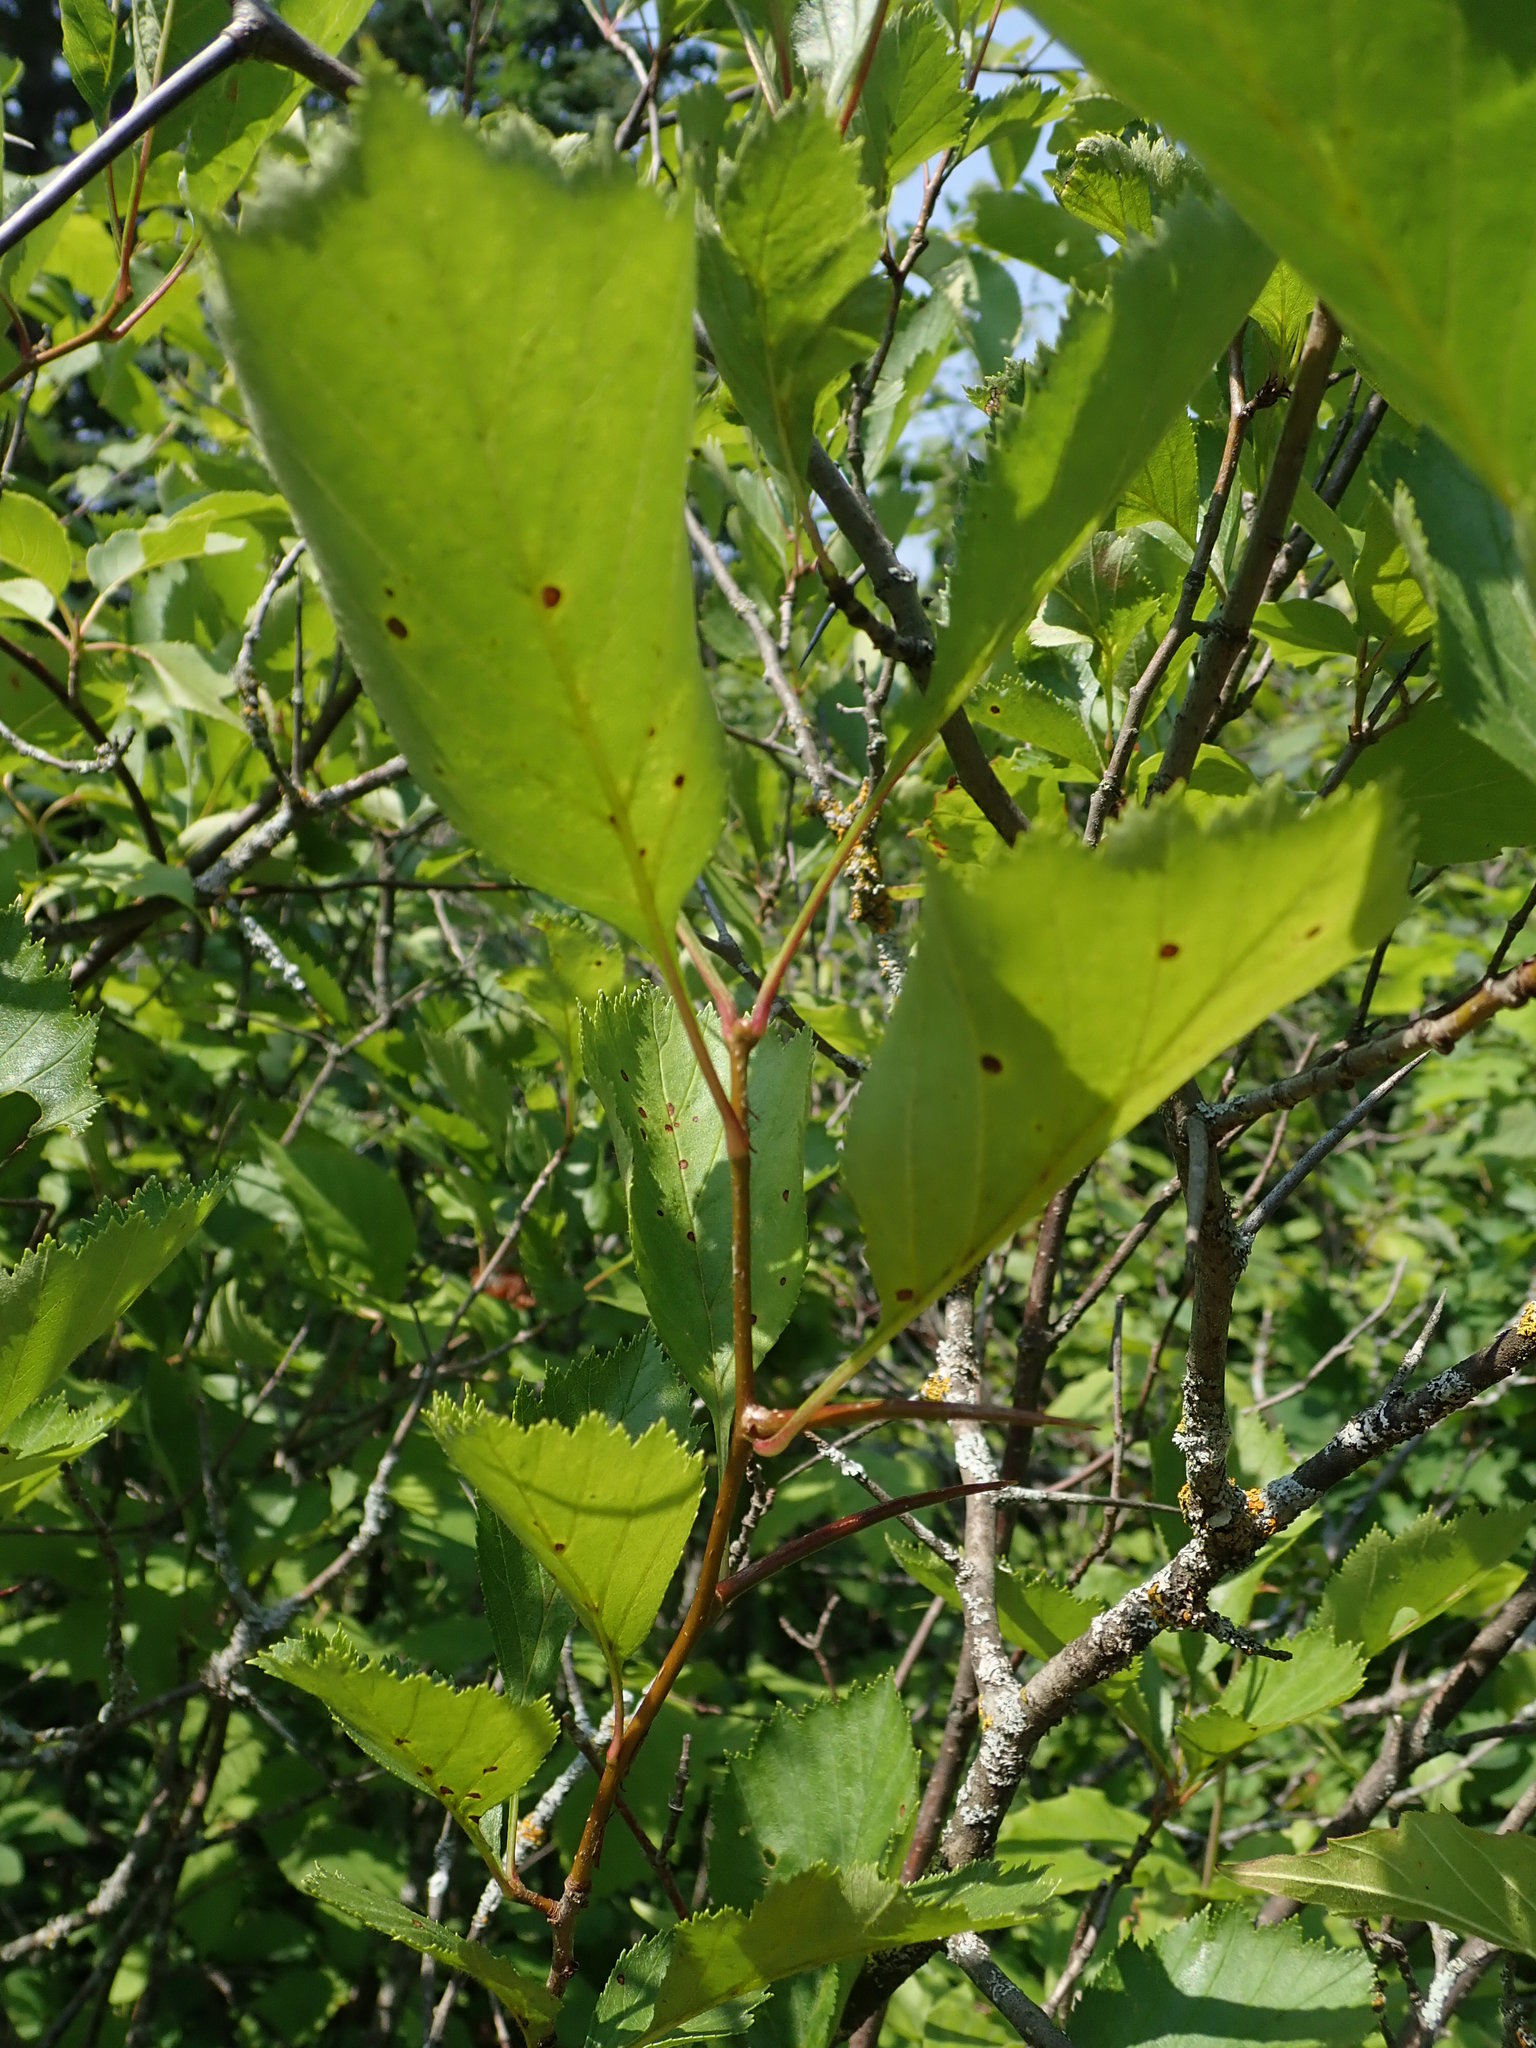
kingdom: Plantae
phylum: Tracheophyta
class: Magnoliopsida
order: Rosales
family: Rosaceae
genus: Crataegus
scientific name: Crataegus douglasii
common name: Black hawthorn
